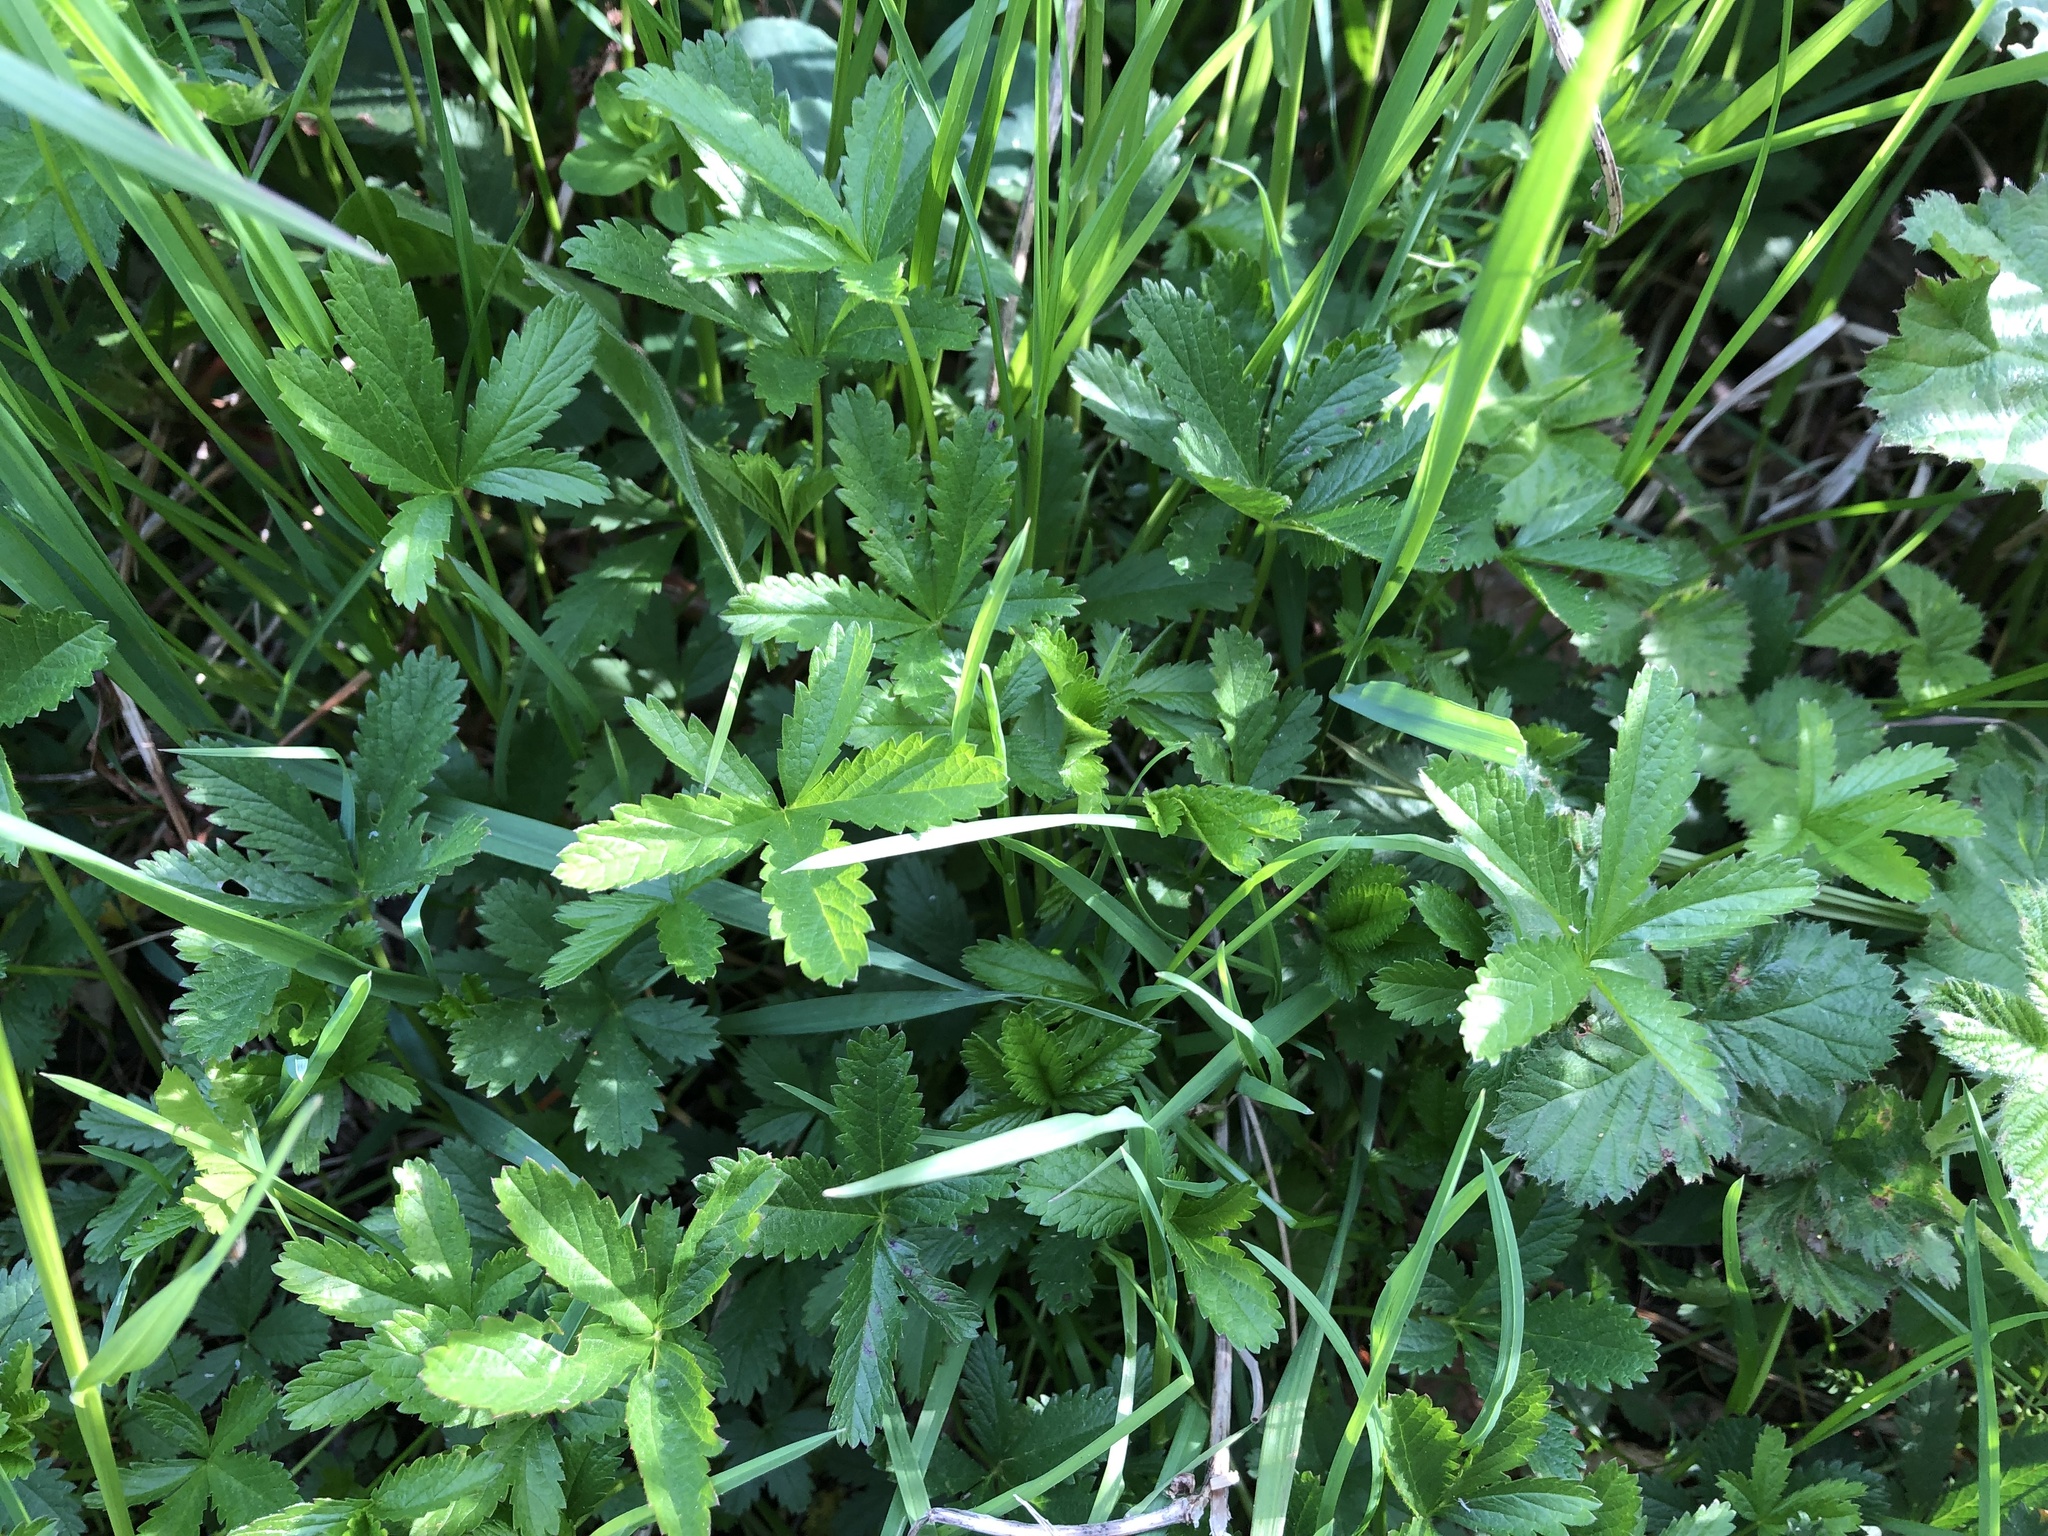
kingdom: Plantae
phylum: Tracheophyta
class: Magnoliopsida
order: Rosales
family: Rosaceae
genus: Potentilla
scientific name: Potentilla reptans
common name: Creeping cinquefoil
